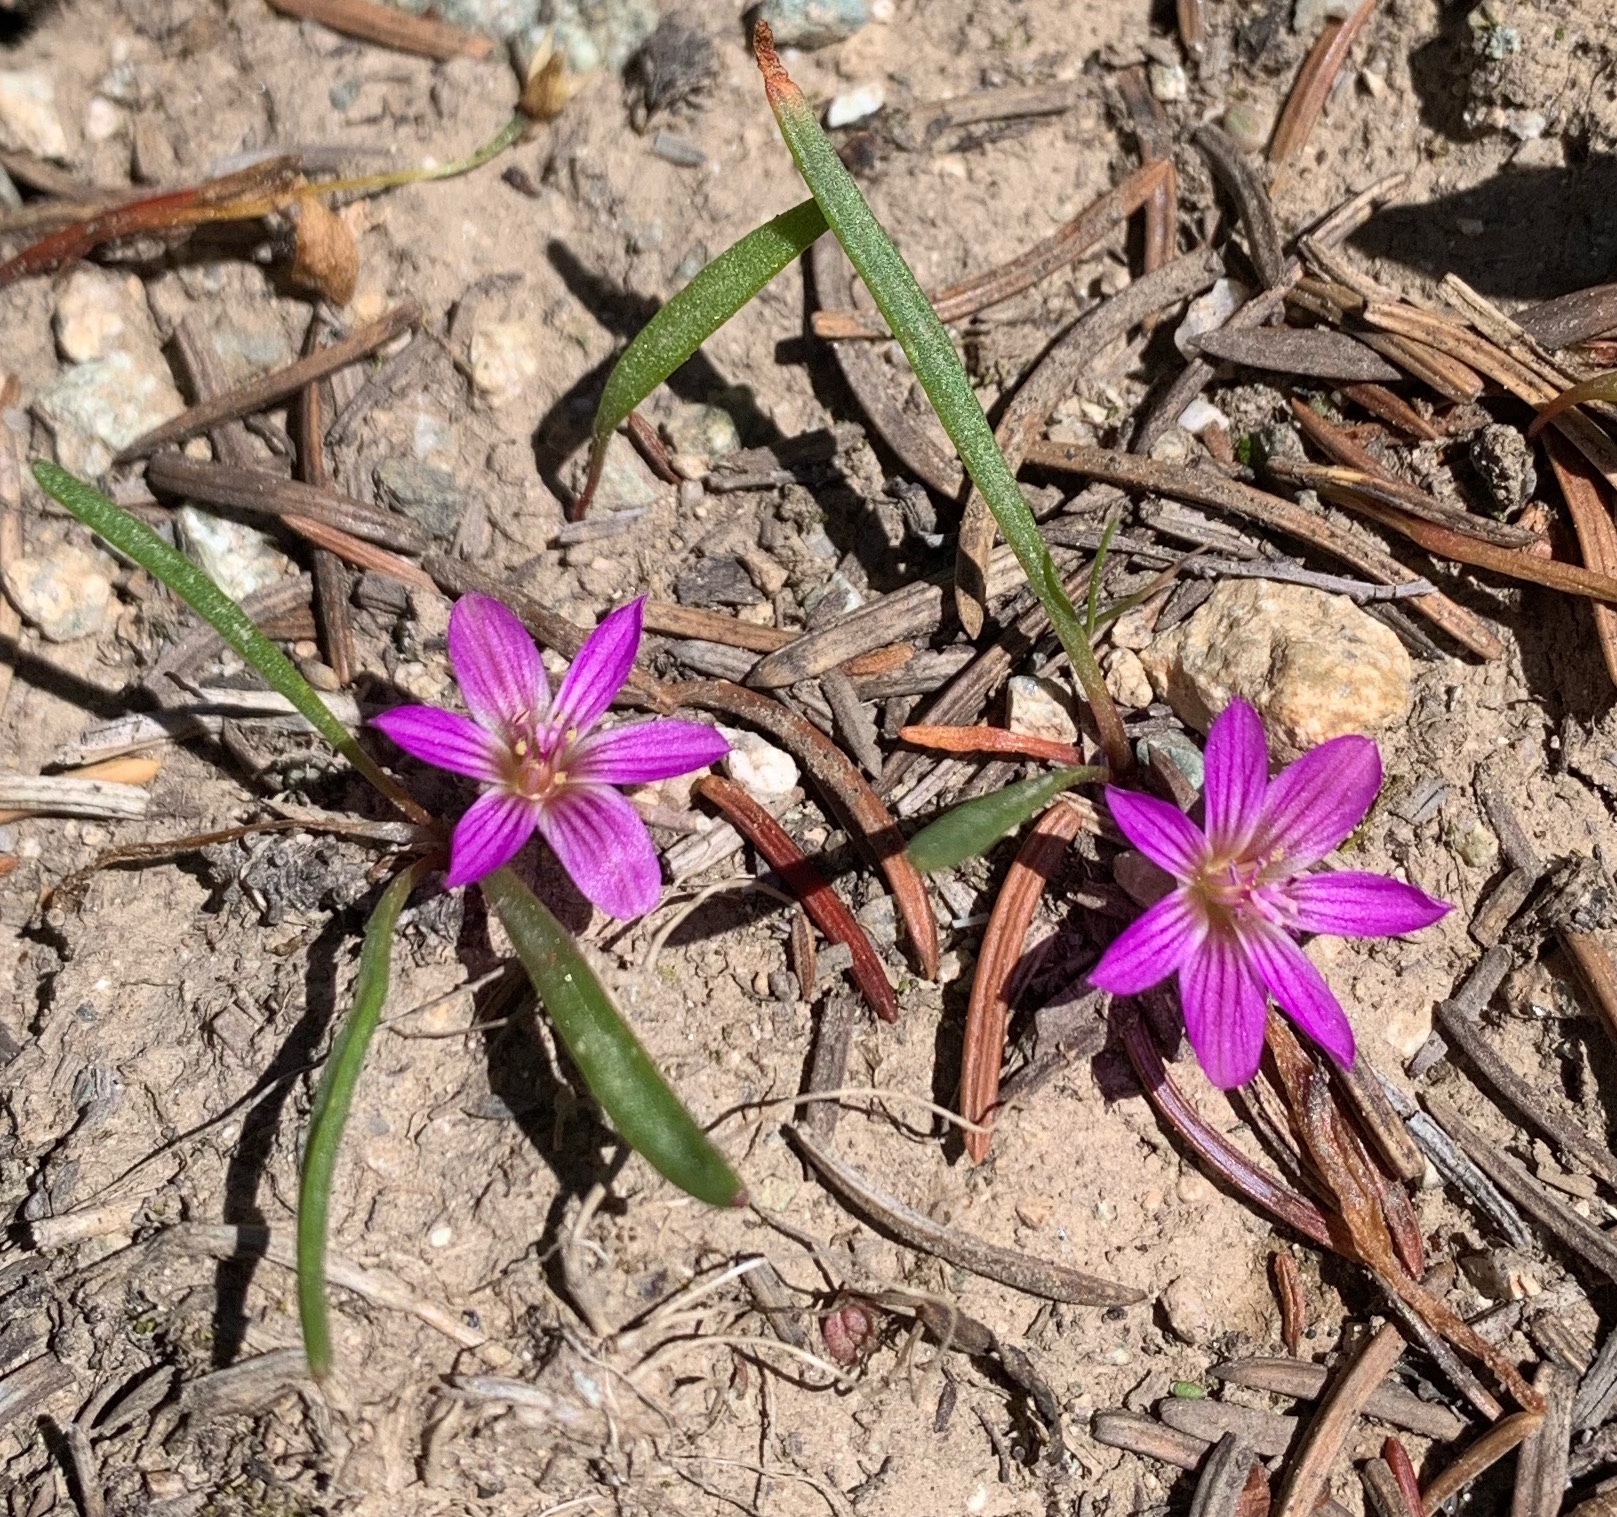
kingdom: Plantae
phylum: Tracheophyta
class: Magnoliopsida
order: Caryophyllales
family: Montiaceae
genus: Lewisia
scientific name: Lewisia pygmaea
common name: Alpine bitterroot
